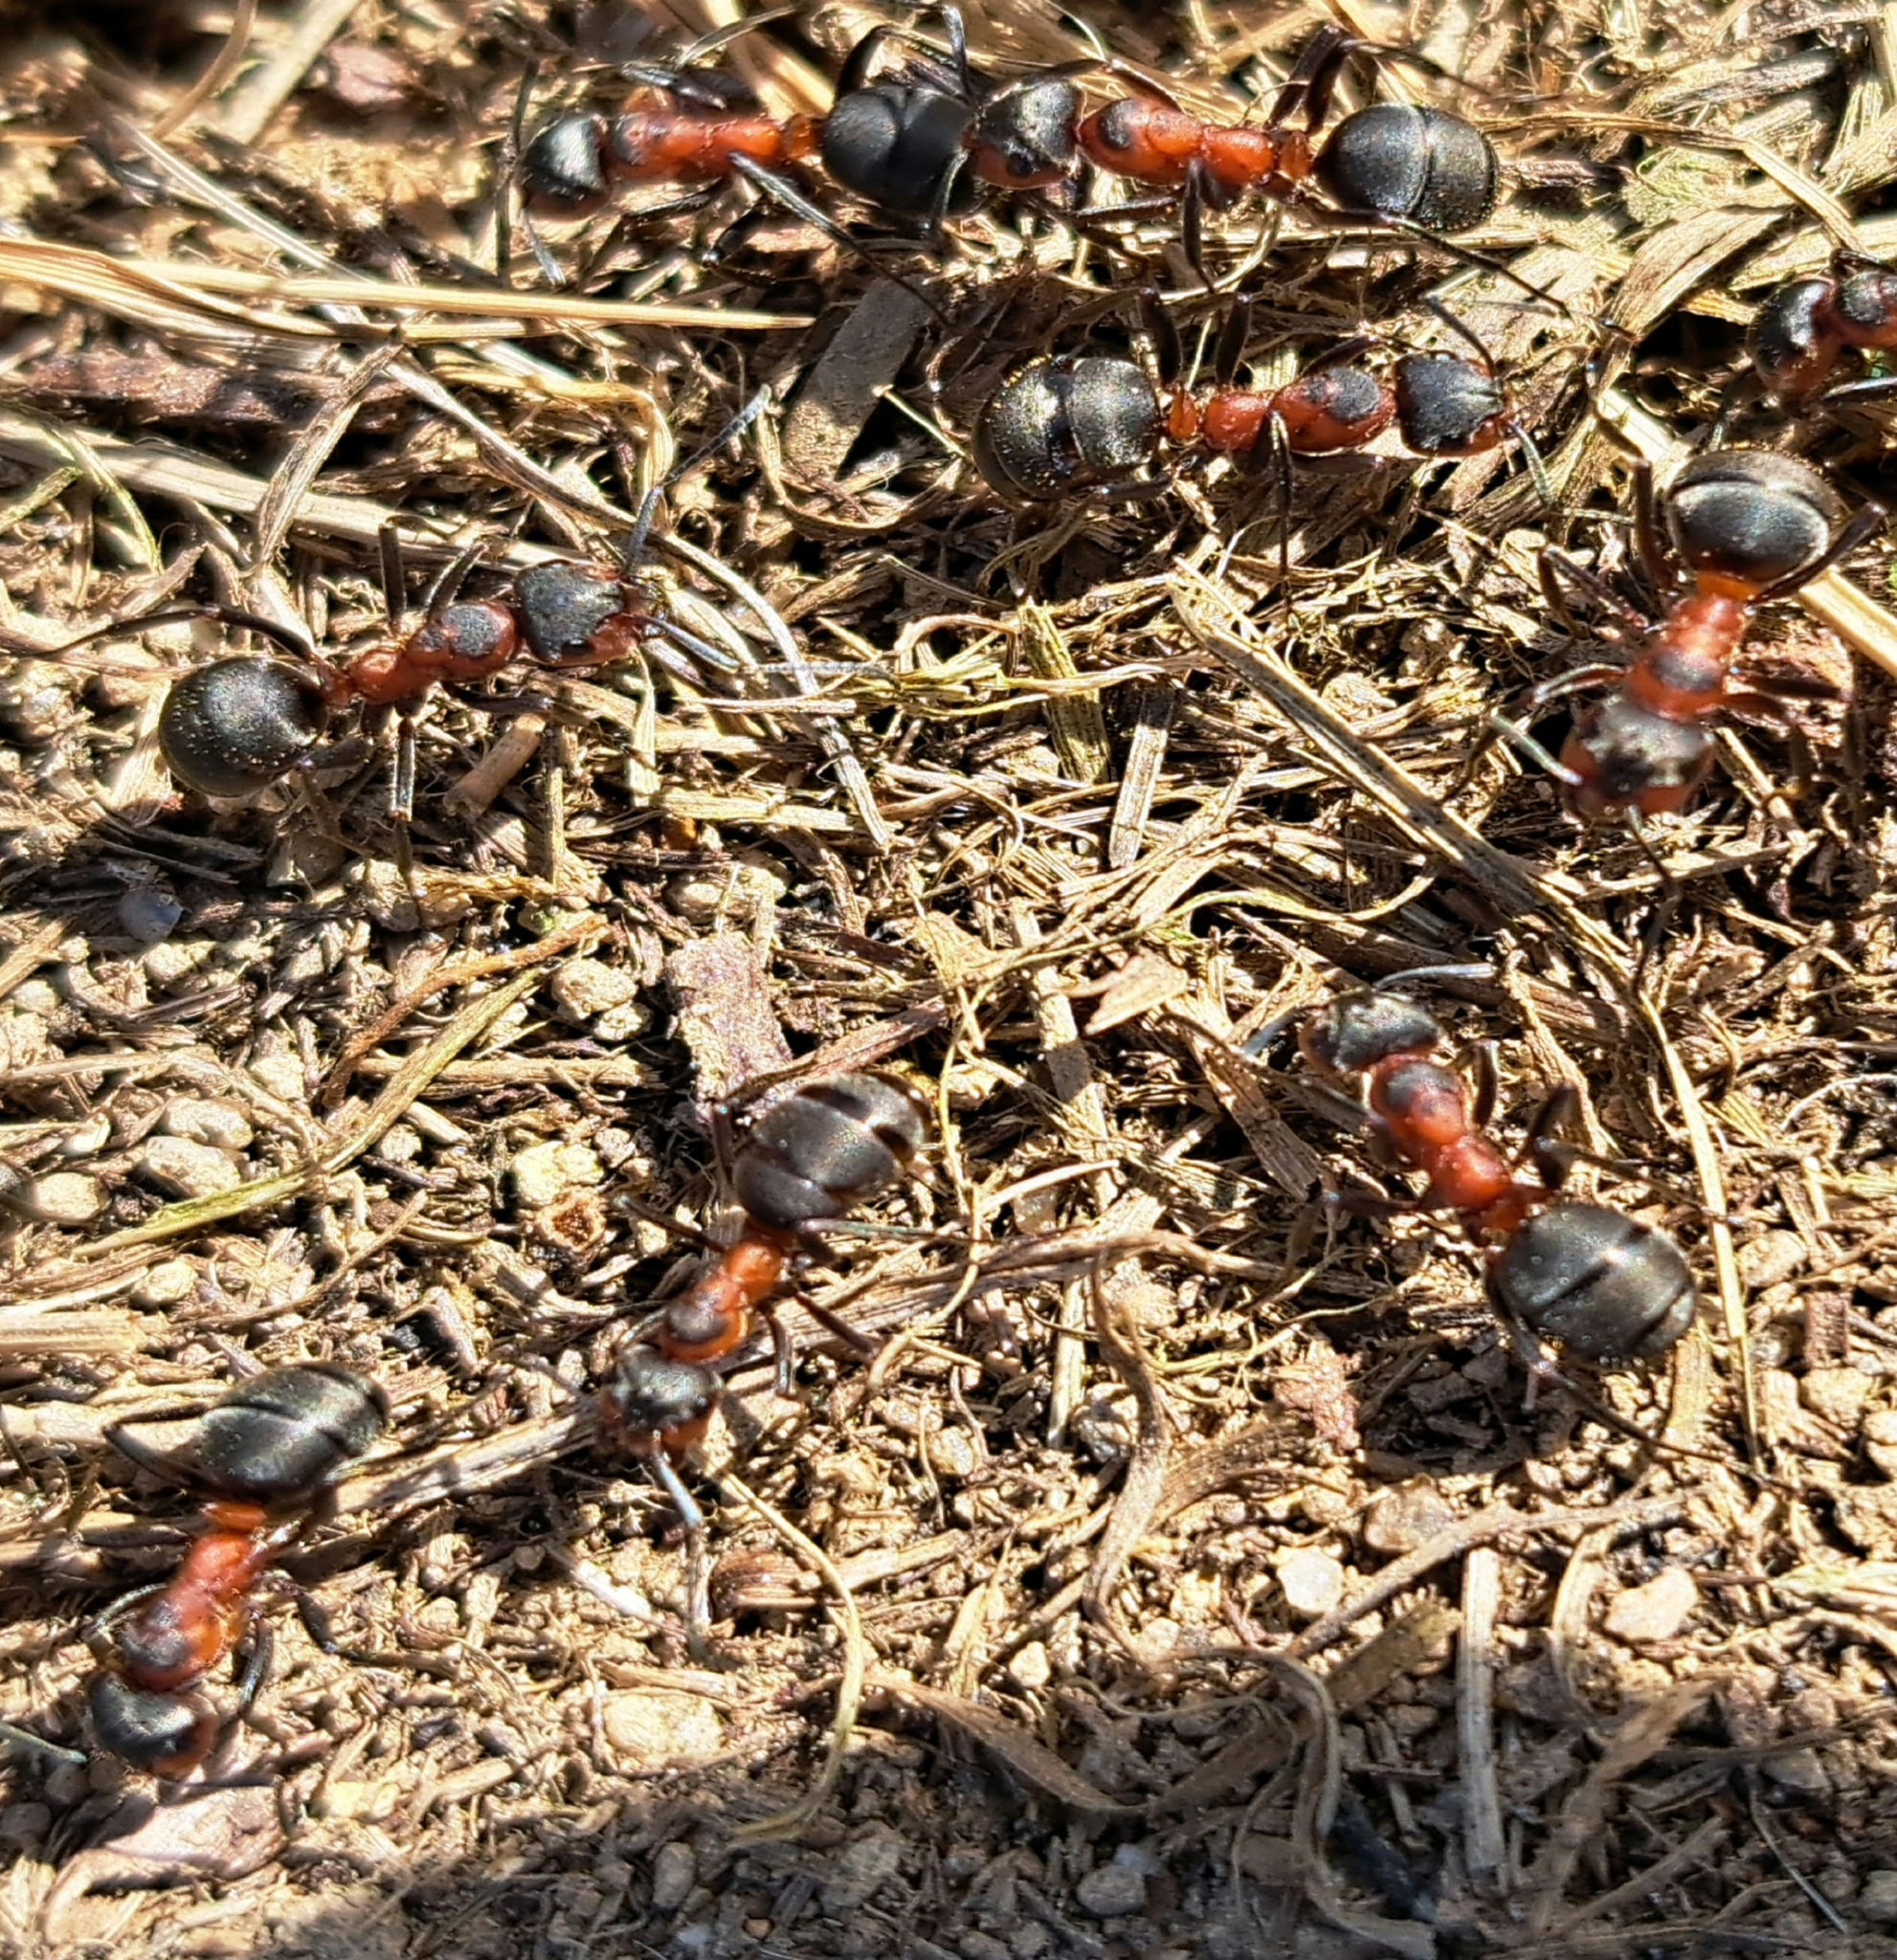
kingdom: Animalia
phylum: Arthropoda
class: Insecta
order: Hymenoptera
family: Formicidae
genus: Formica
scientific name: Formica pratensis
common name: European red wood ant
